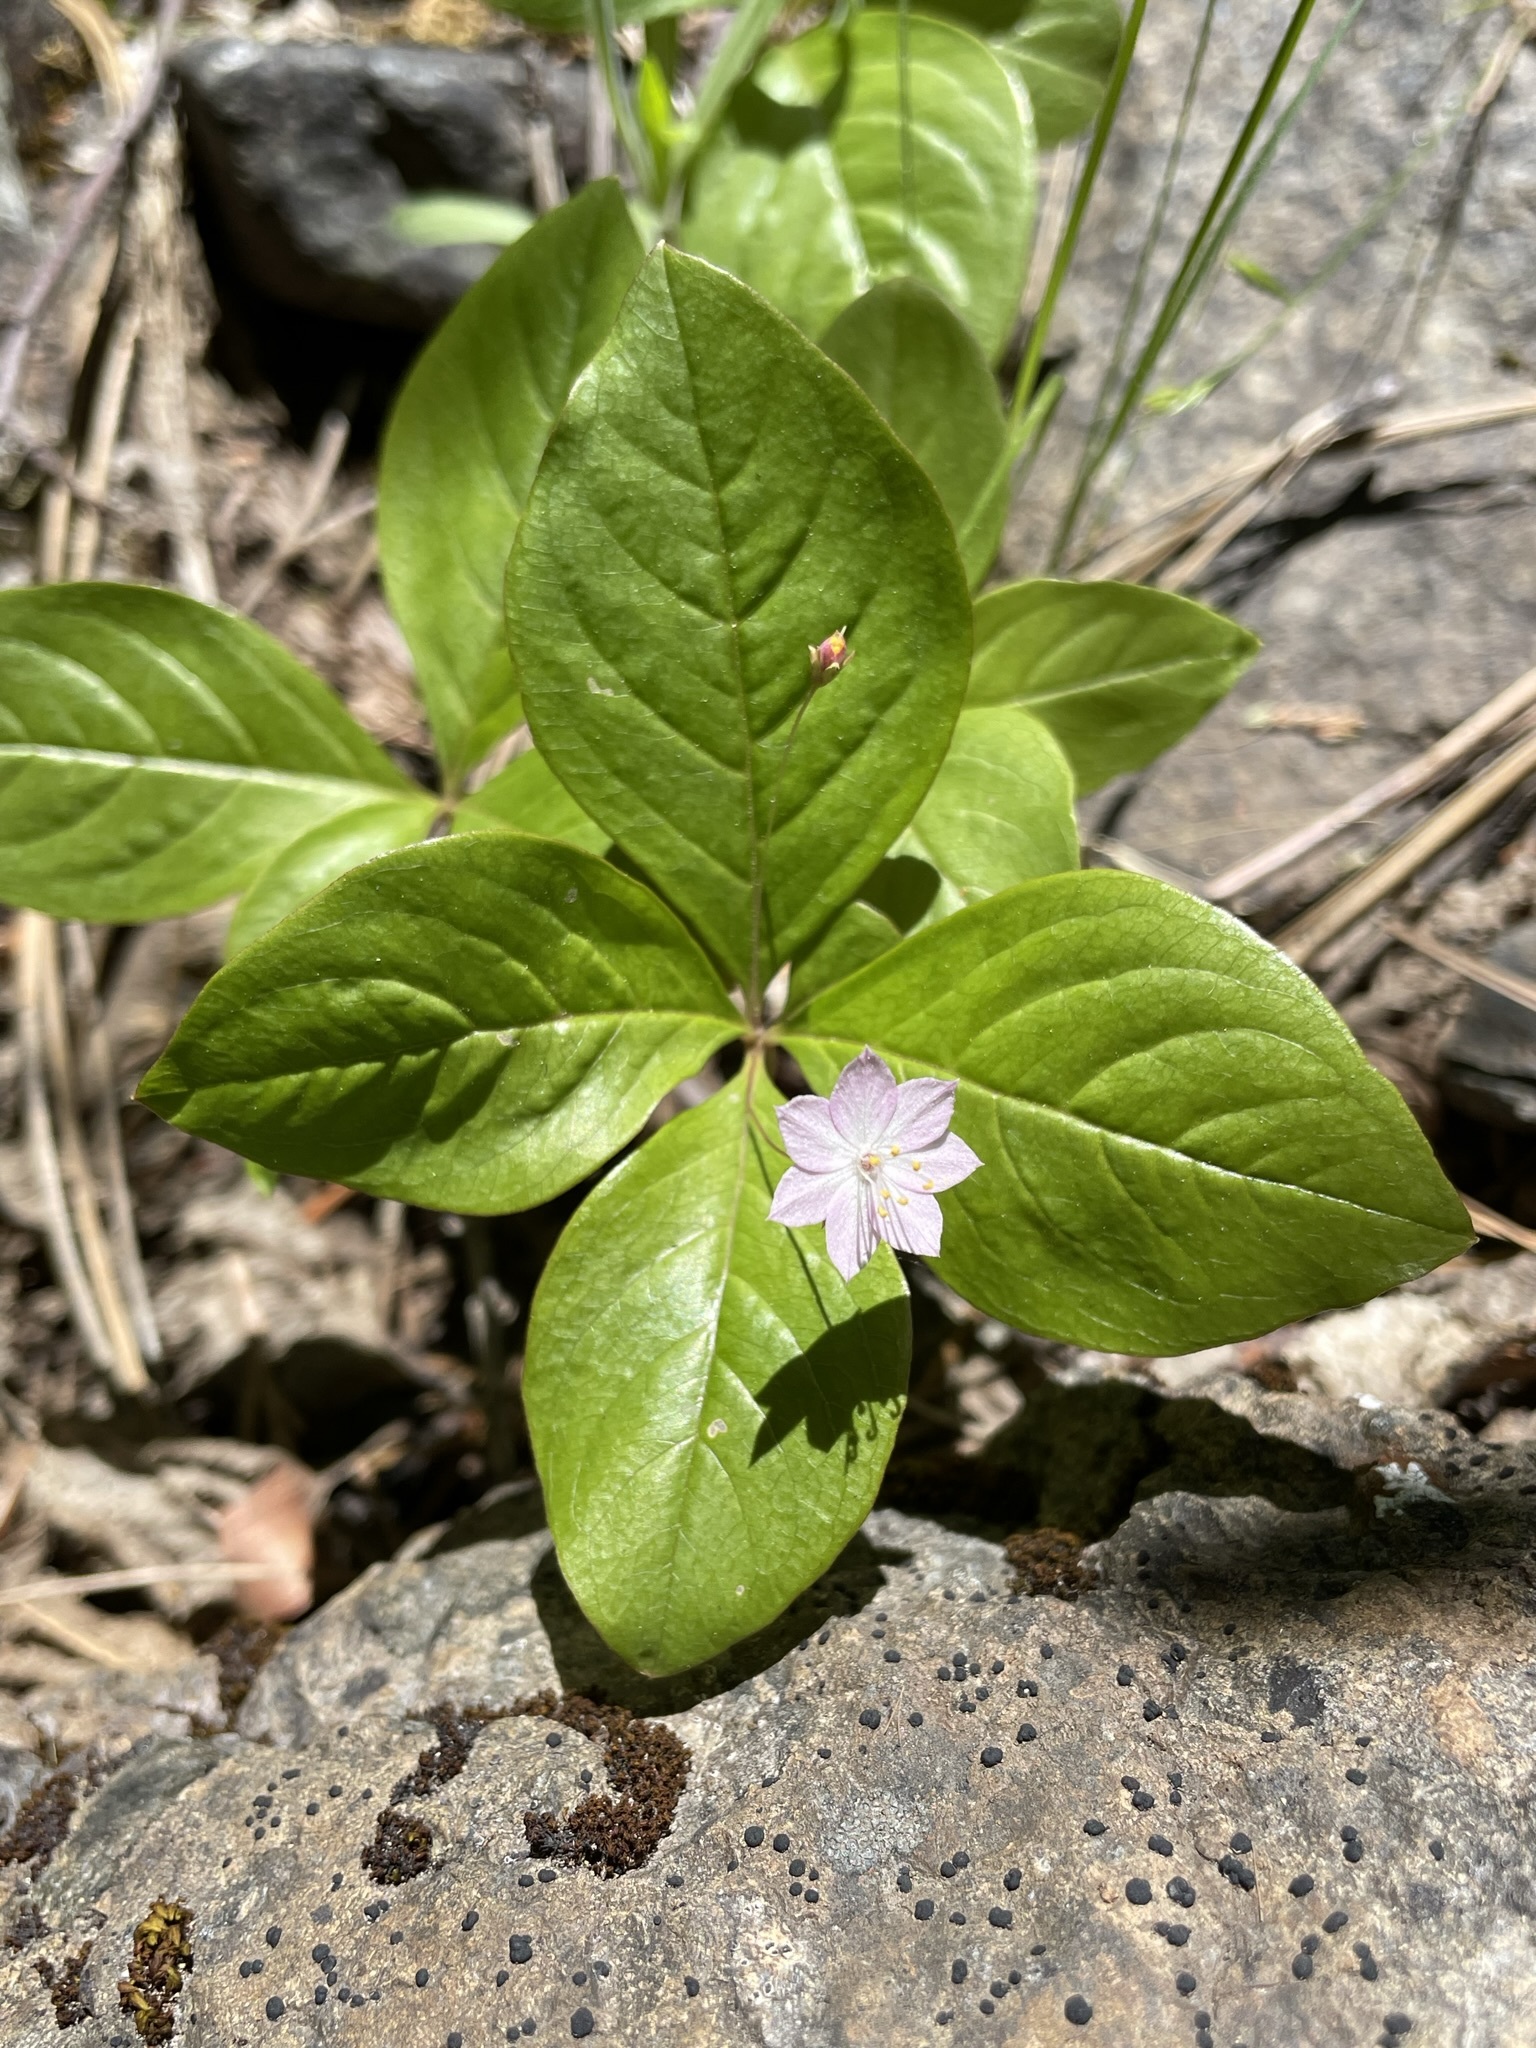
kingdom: Plantae
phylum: Tracheophyta
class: Magnoliopsida
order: Ericales
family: Primulaceae
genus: Lysimachia
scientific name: Lysimachia latifolia
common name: Pacific starflower
